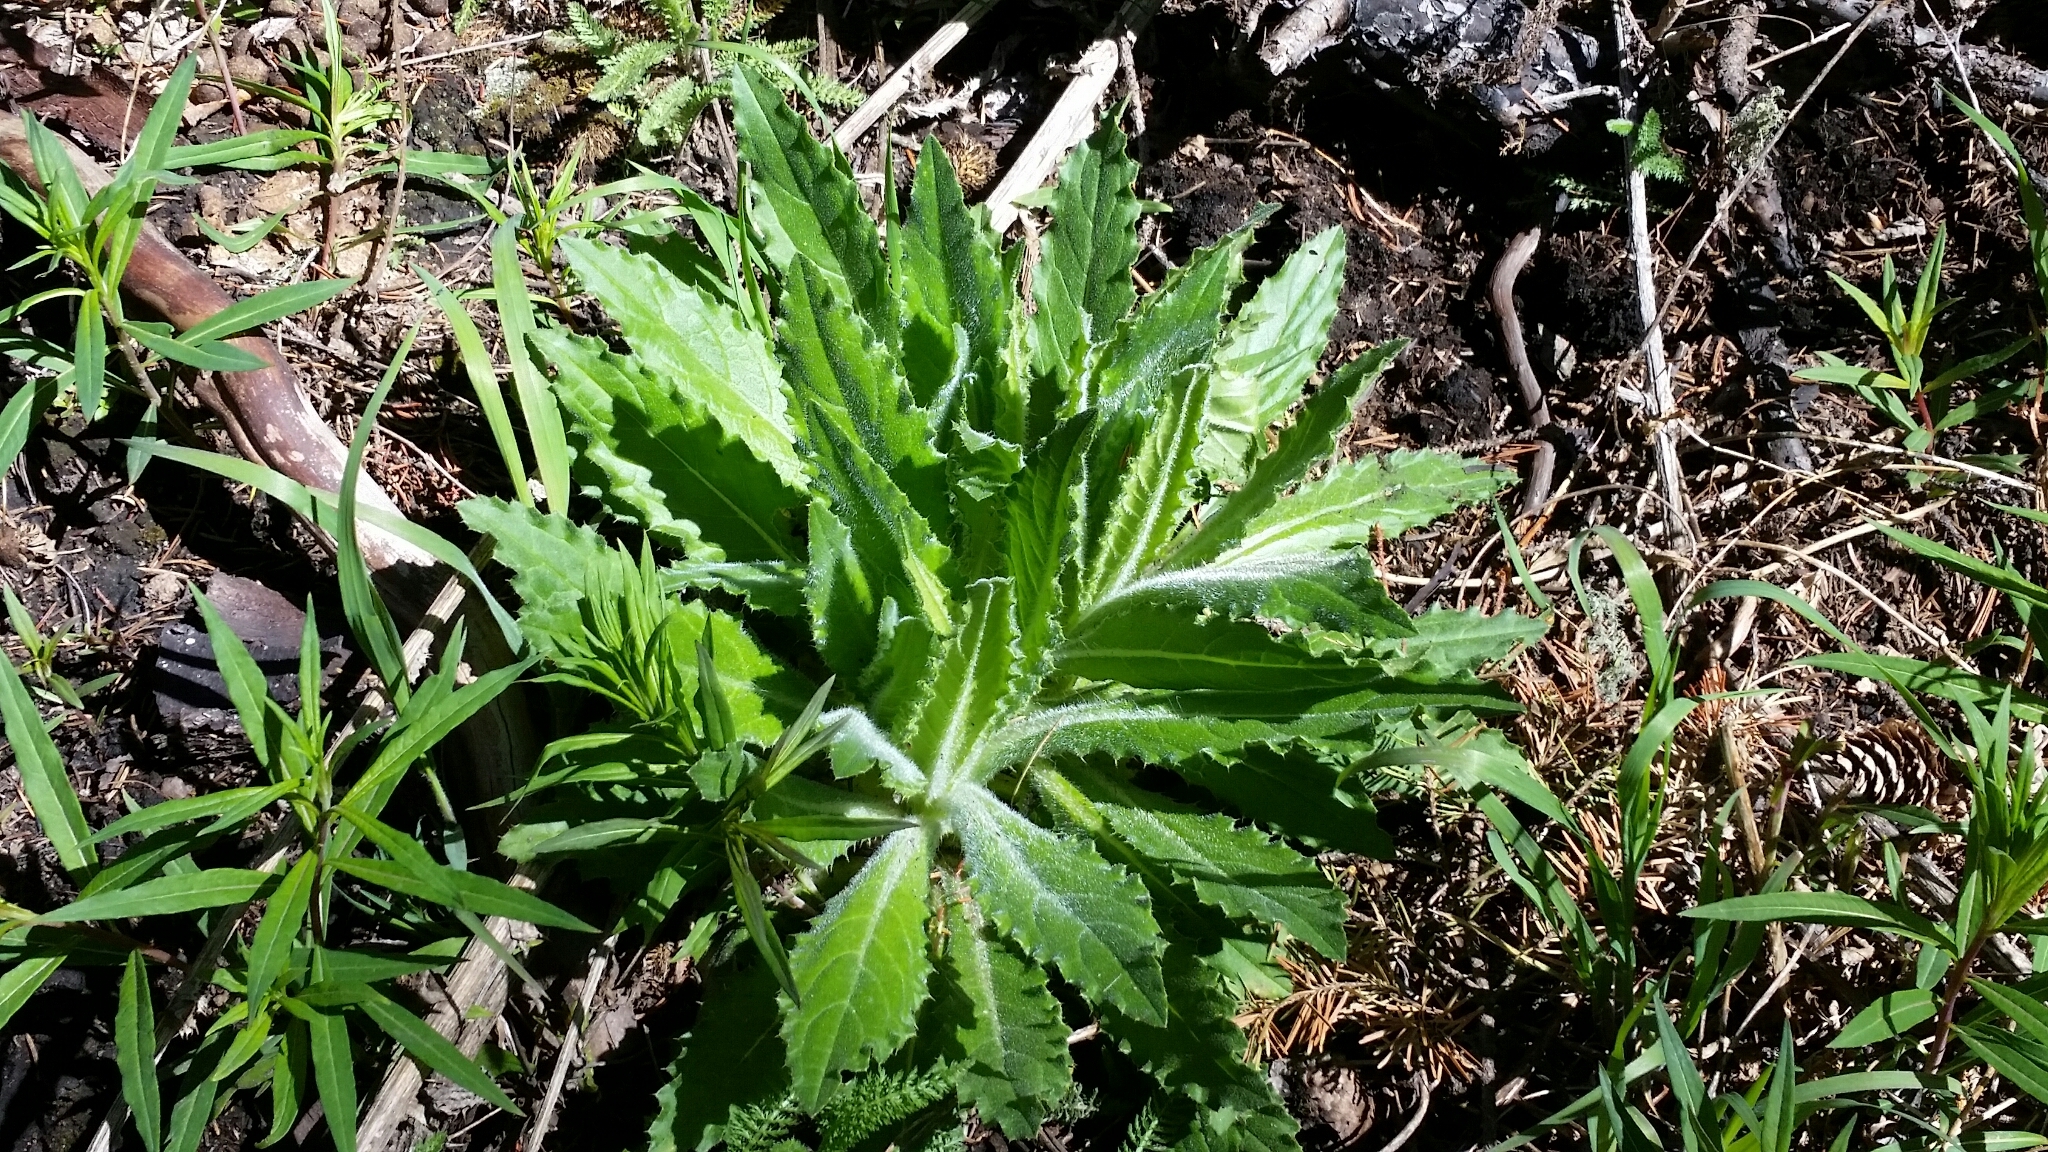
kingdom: Plantae
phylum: Tracheophyta
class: Magnoliopsida
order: Asterales
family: Asteraceae
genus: Cirsium
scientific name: Cirsium parryi
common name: Parry's thistle
